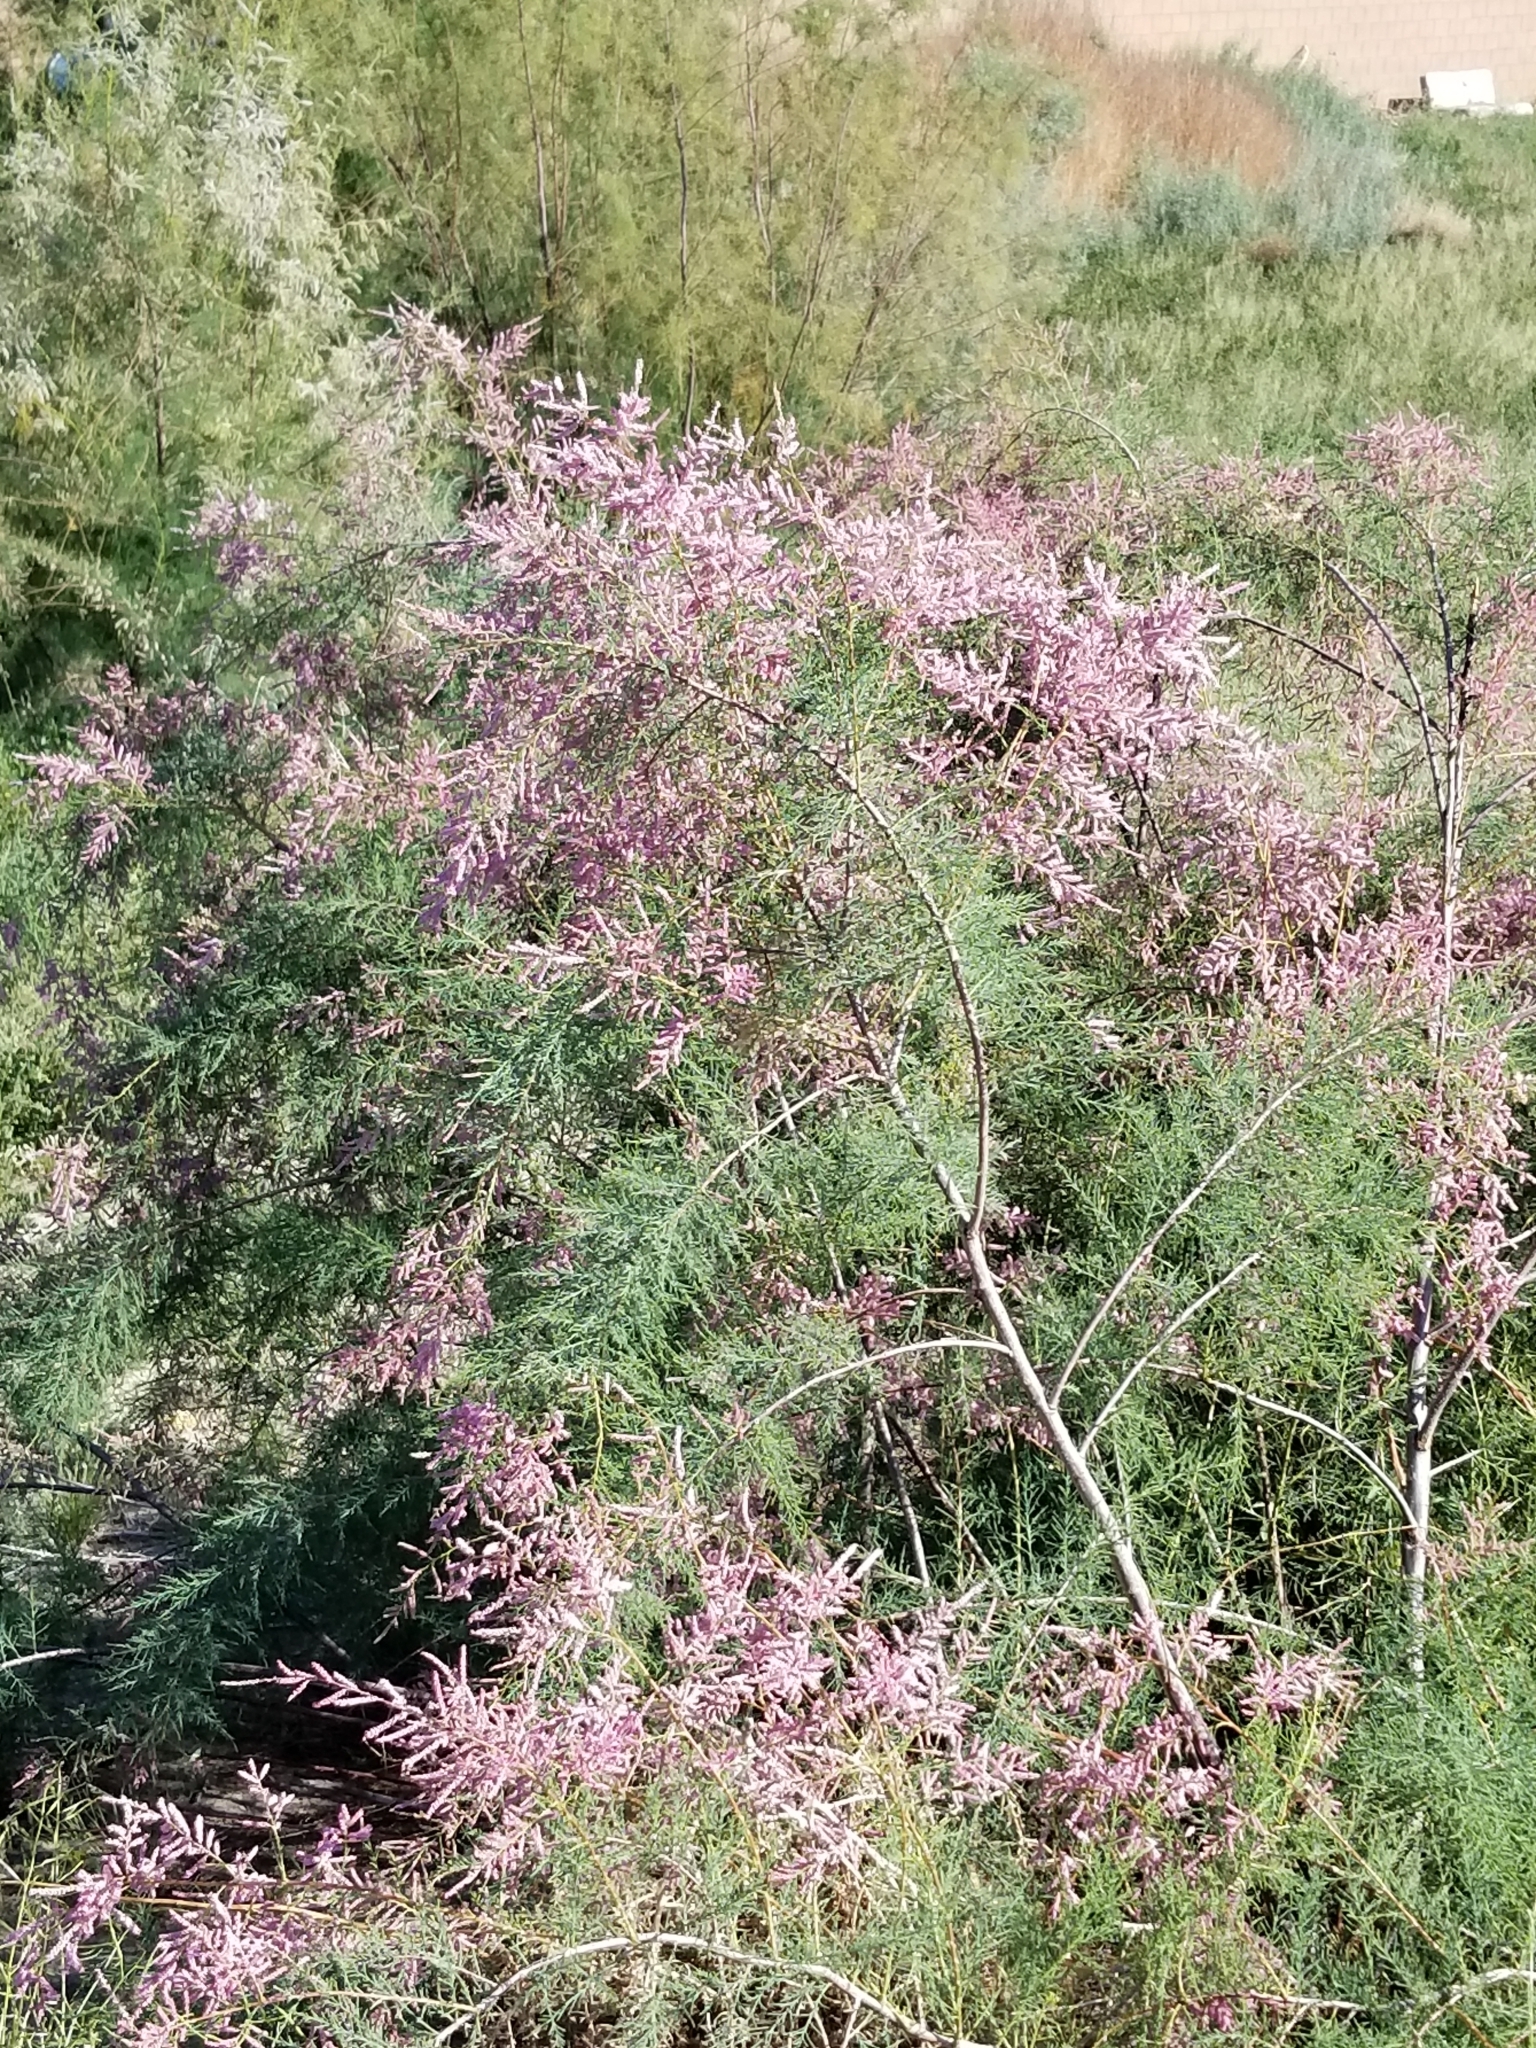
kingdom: Plantae
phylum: Tracheophyta
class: Magnoliopsida
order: Caryophyllales
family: Tamaricaceae
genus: Tamarix
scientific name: Tamarix ramosissima
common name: Pink tamarisk
